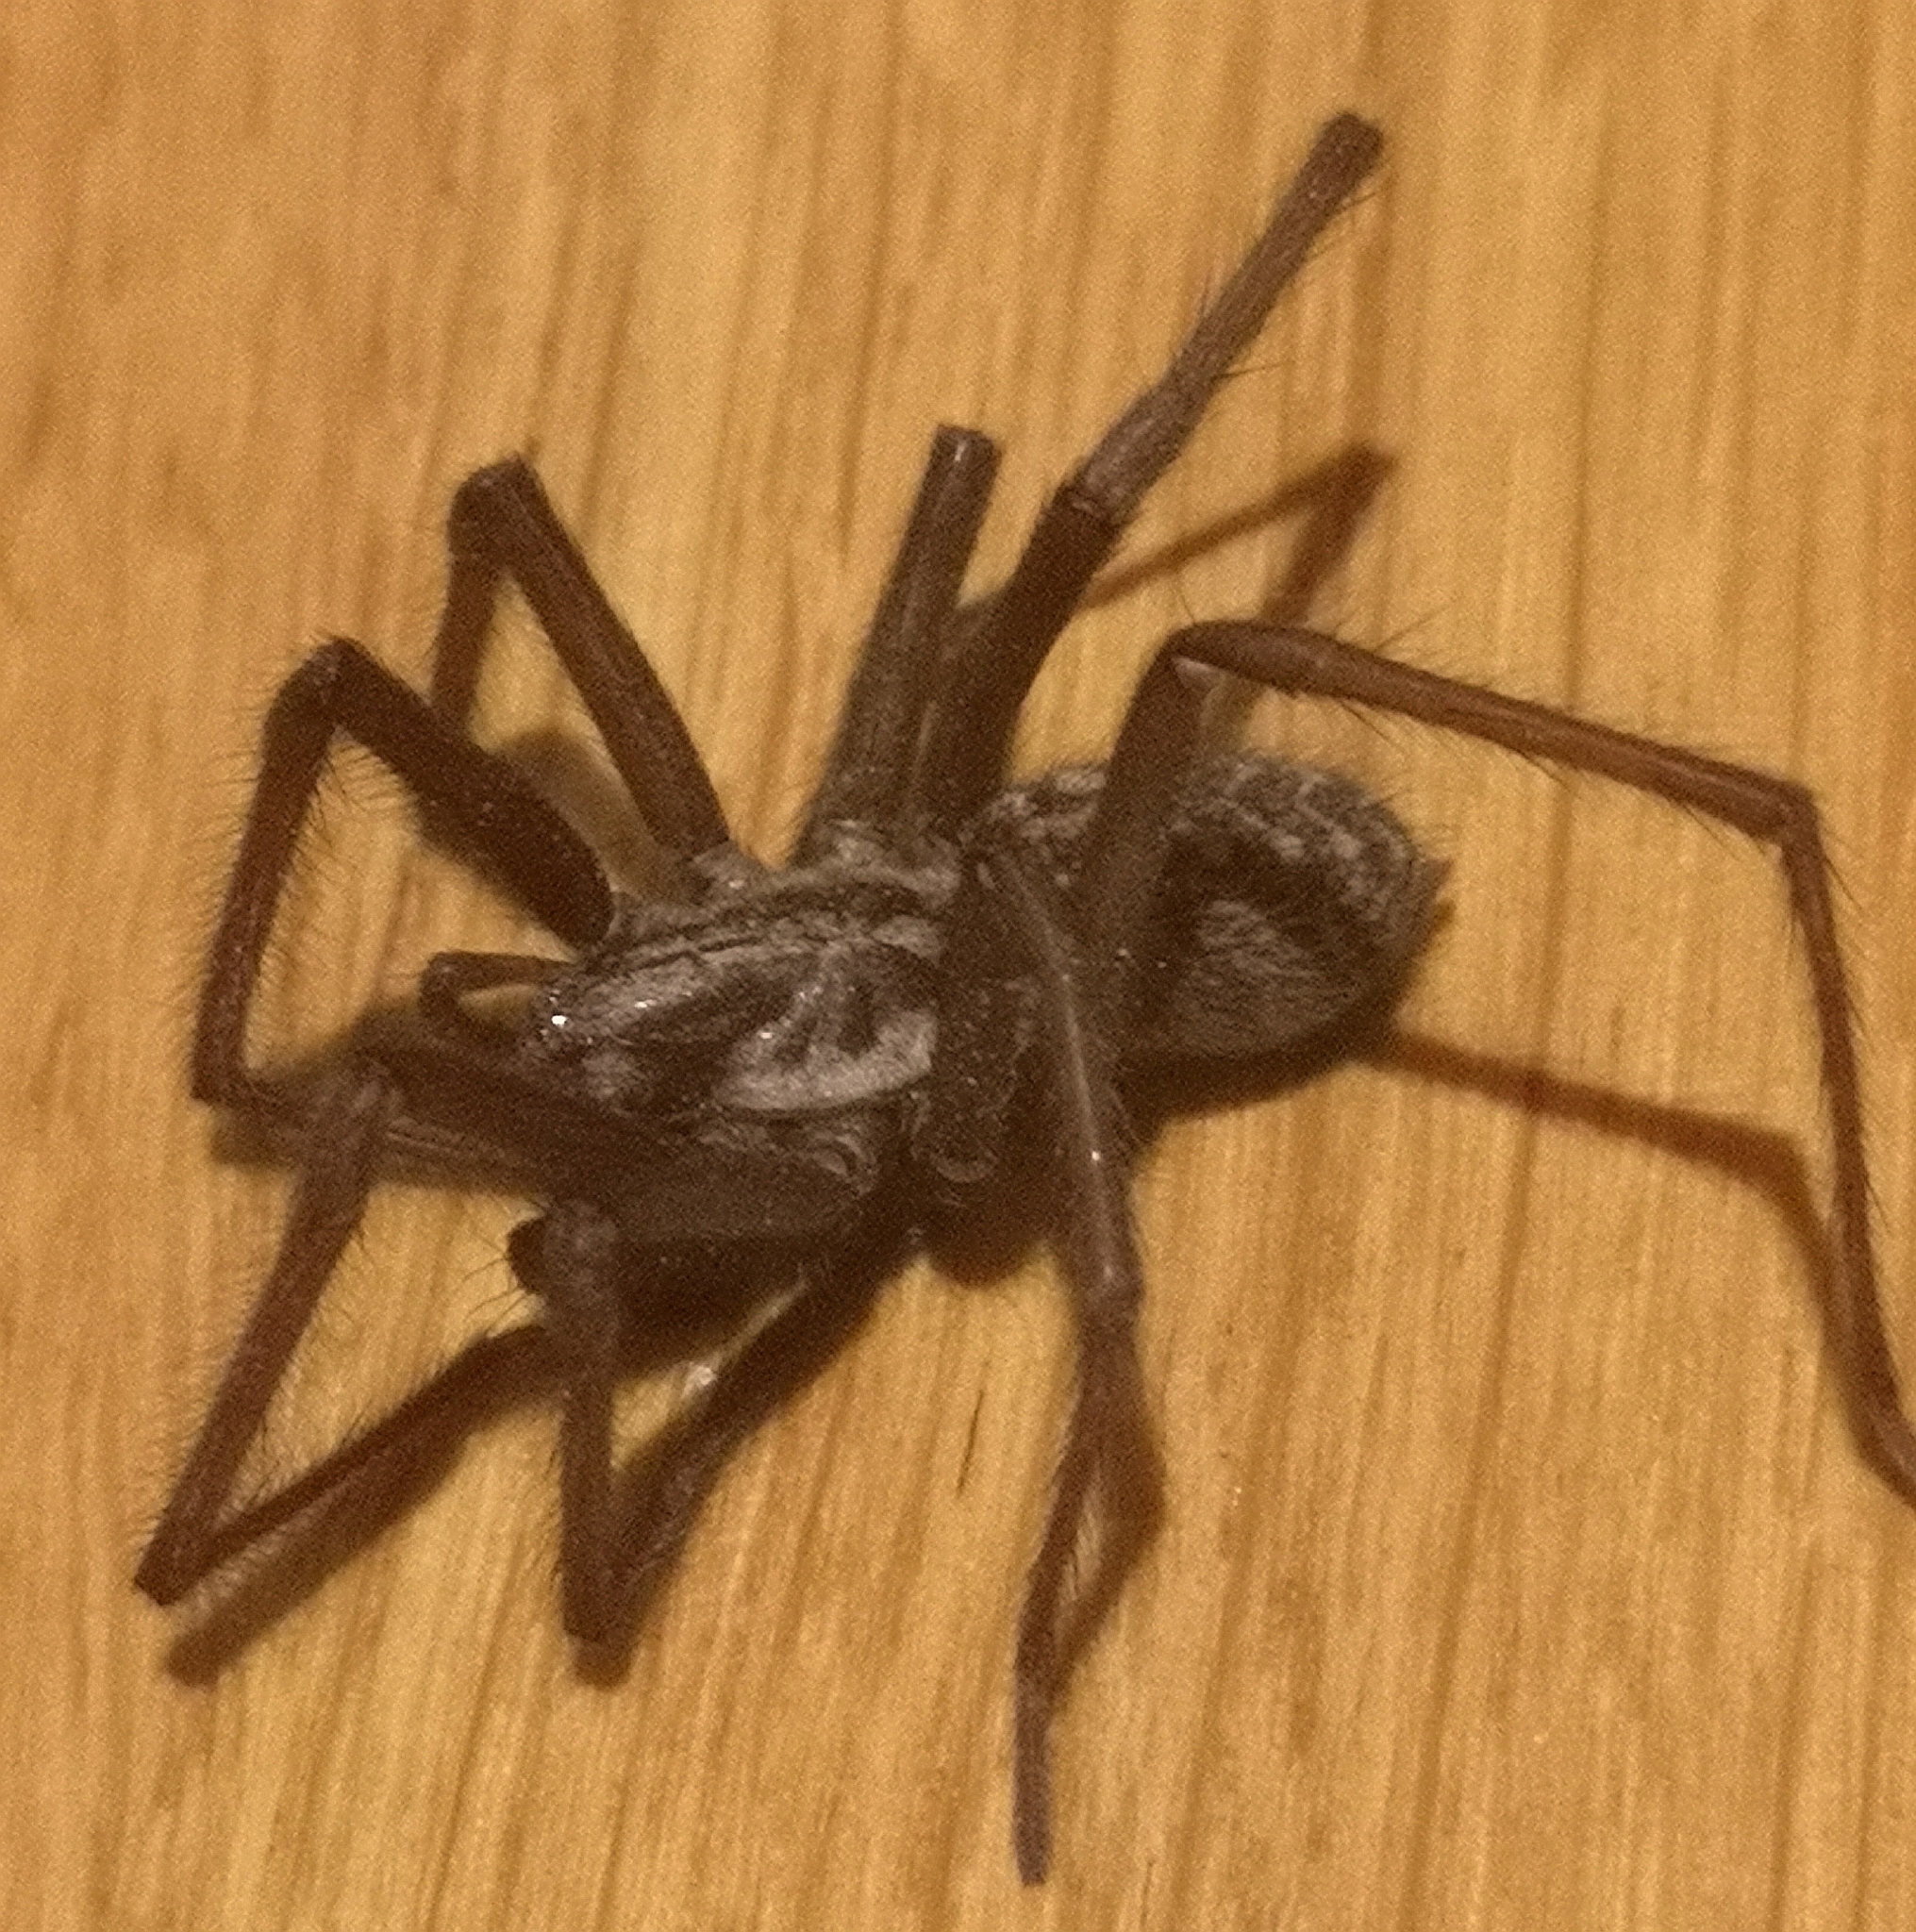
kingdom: Animalia
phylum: Arthropoda
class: Arachnida
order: Araneae
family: Agelenidae
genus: Eratigena
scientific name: Eratigena atrica
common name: Giant house spider
